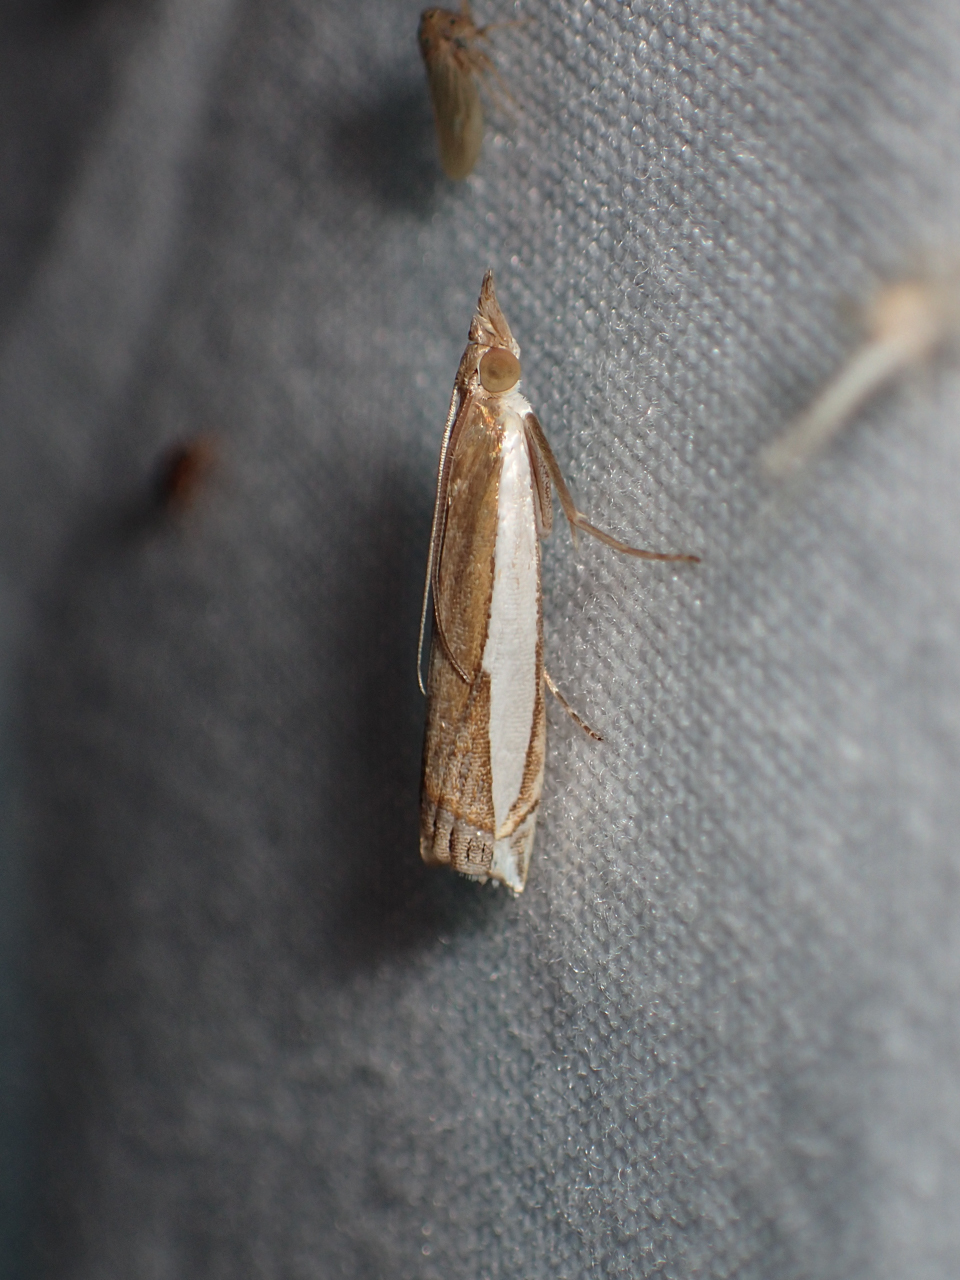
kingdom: Animalia
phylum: Arthropoda
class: Insecta
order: Lepidoptera
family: Crambidae
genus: Crambus
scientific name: Crambus quinquareatus
